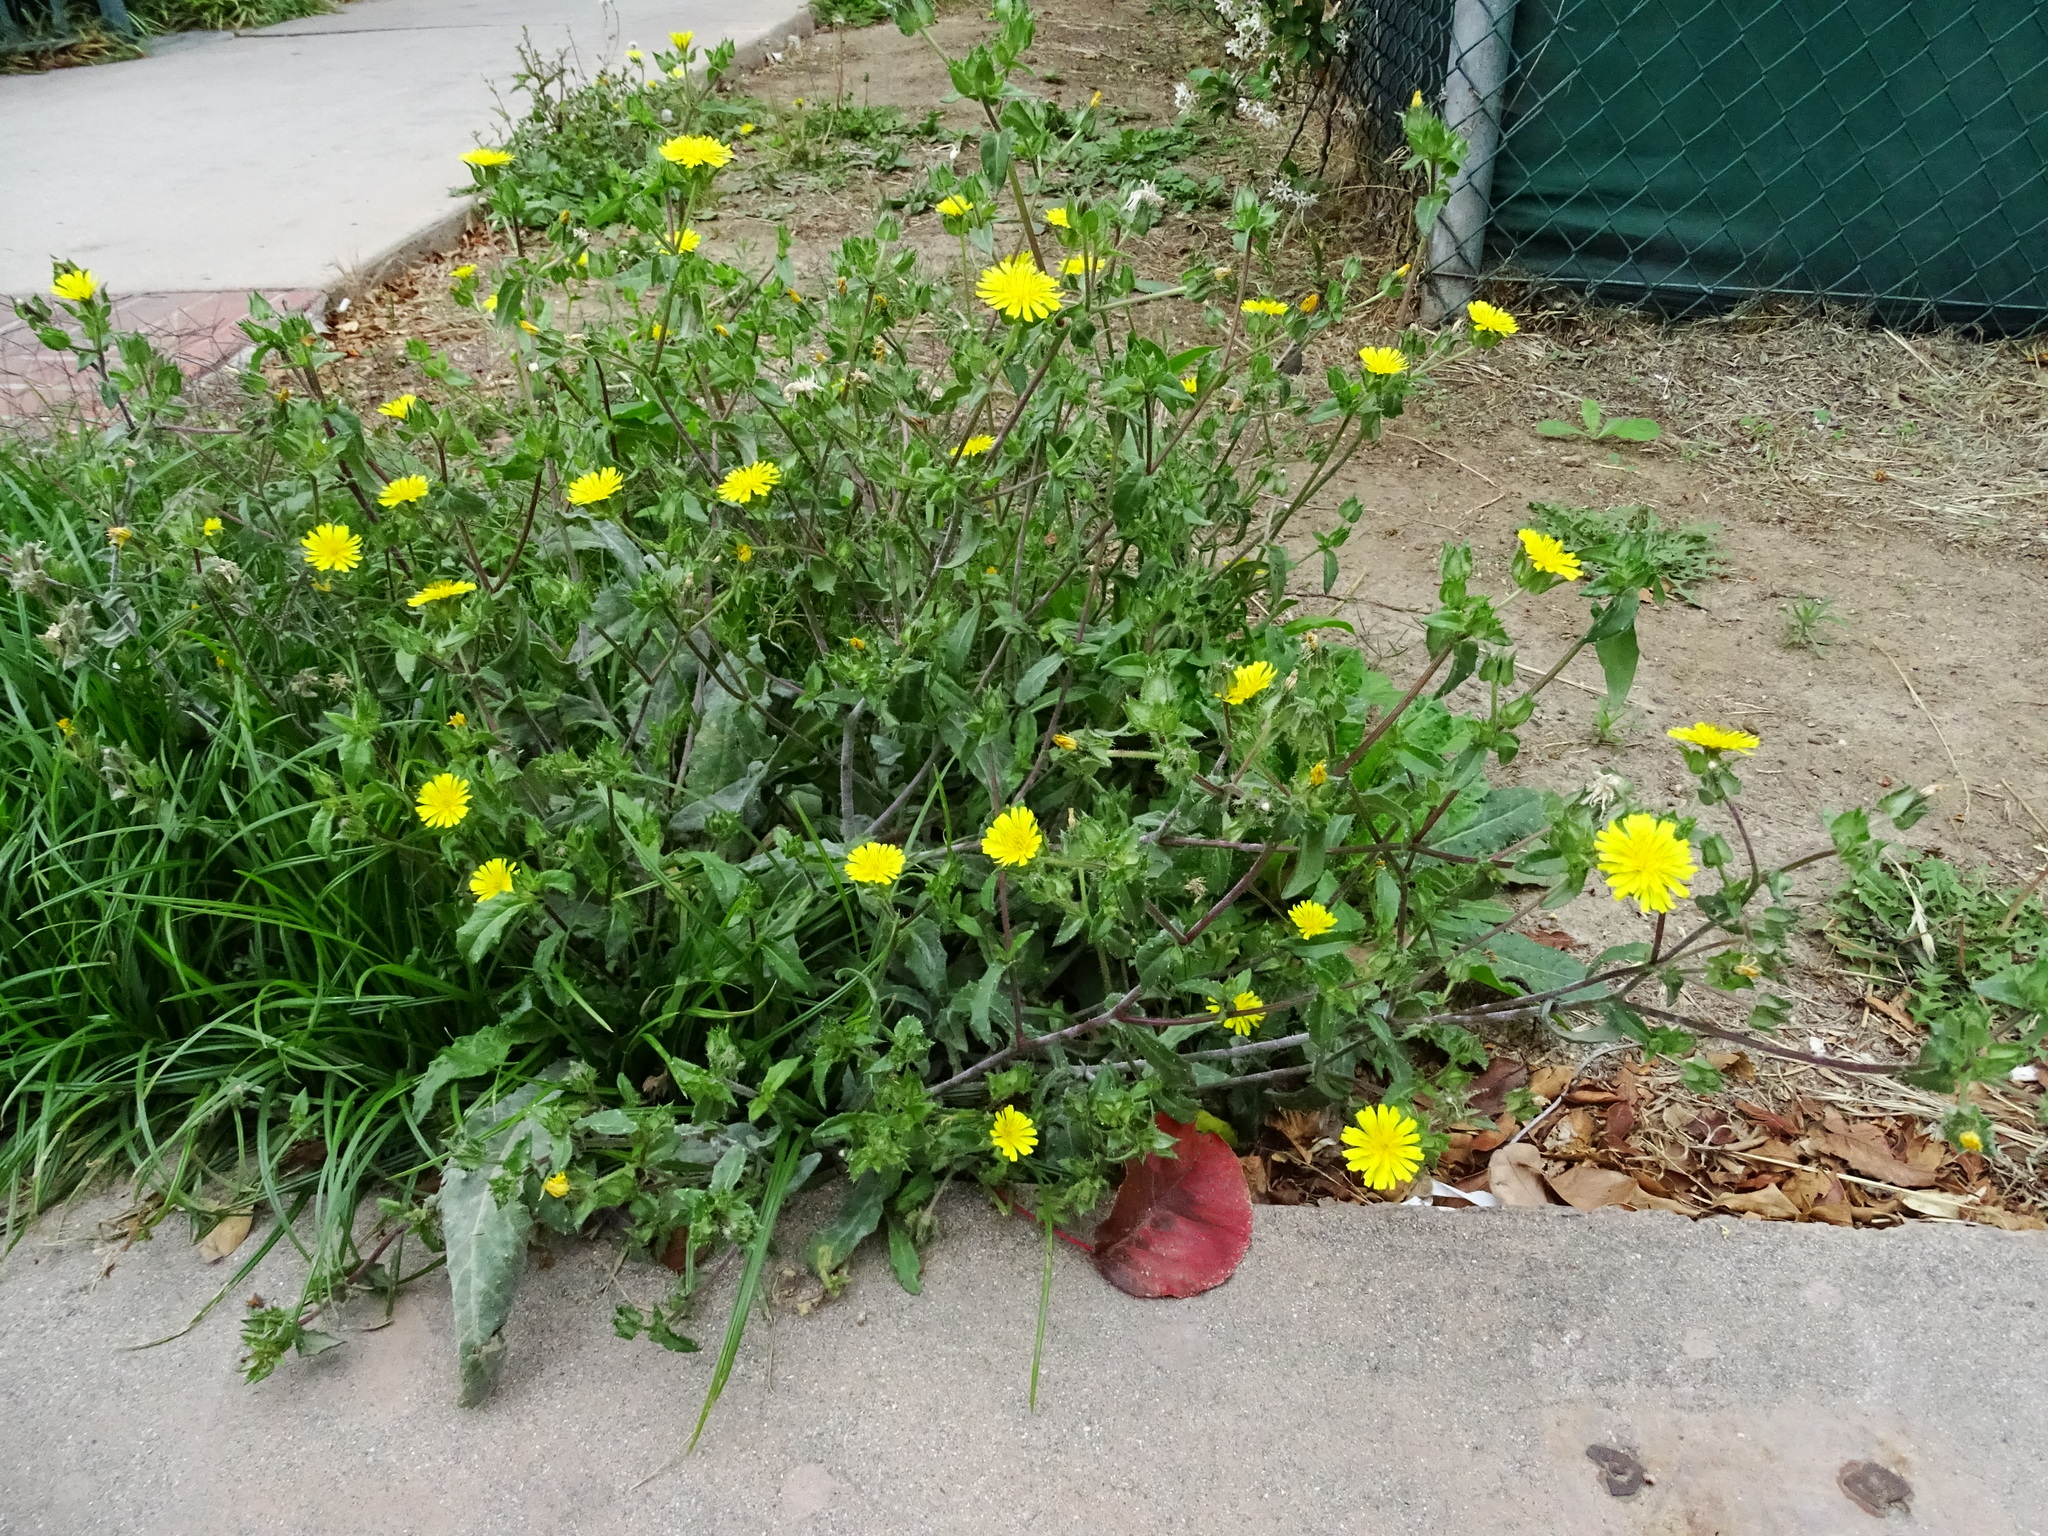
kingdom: Plantae
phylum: Tracheophyta
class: Magnoliopsida
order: Asterales
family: Asteraceae
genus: Helminthotheca
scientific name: Helminthotheca echioides
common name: Ox-tongue
